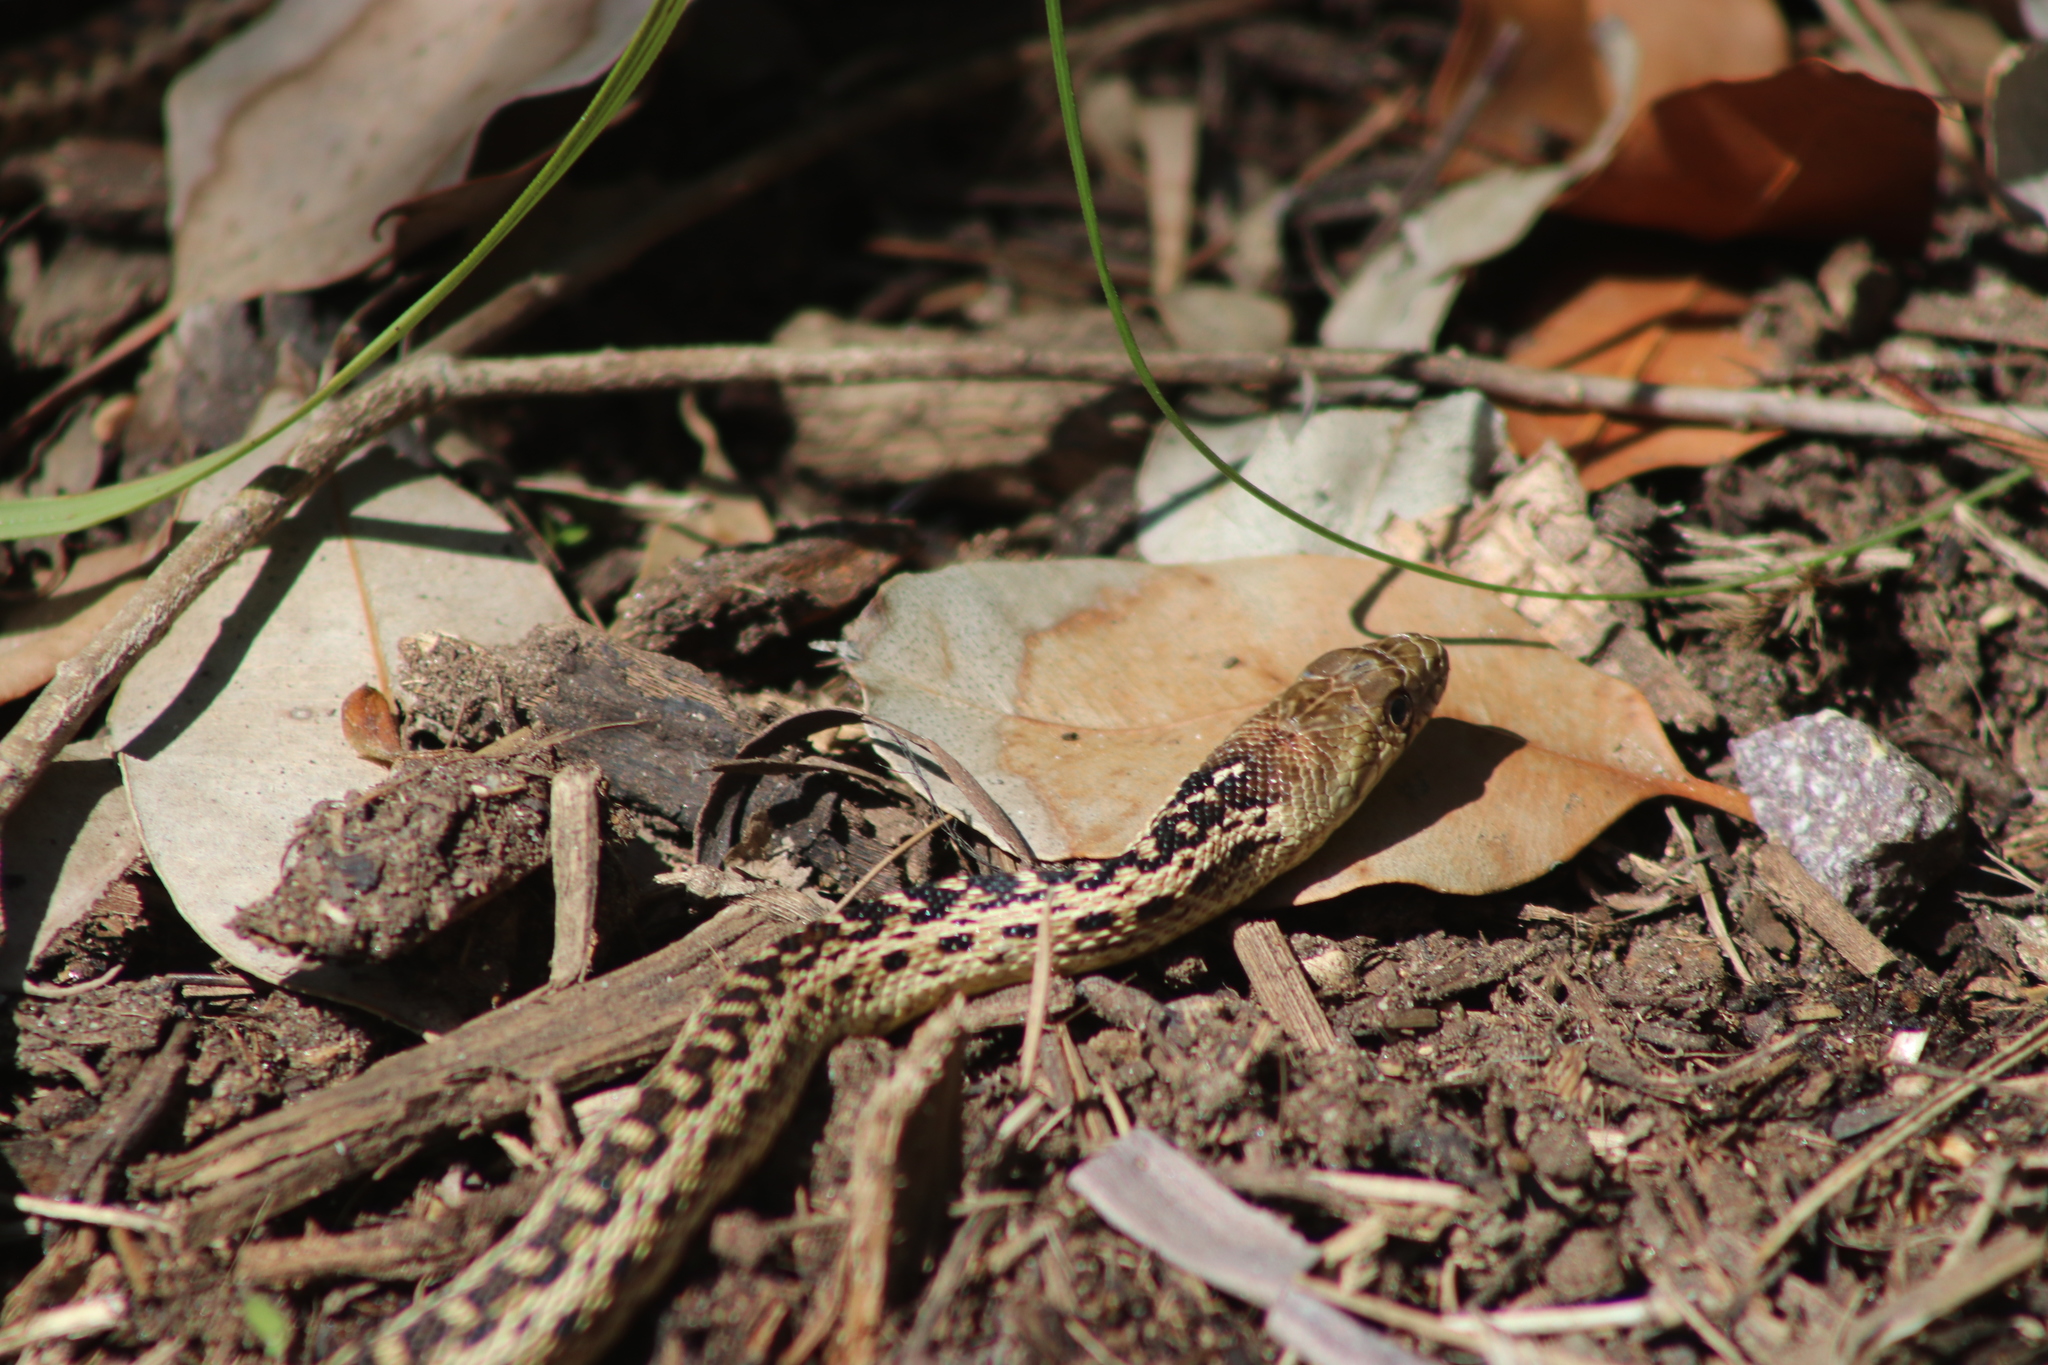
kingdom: Animalia
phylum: Chordata
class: Squamata
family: Colubridae
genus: Pituophis
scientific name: Pituophis catenifer
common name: Gopher snake
